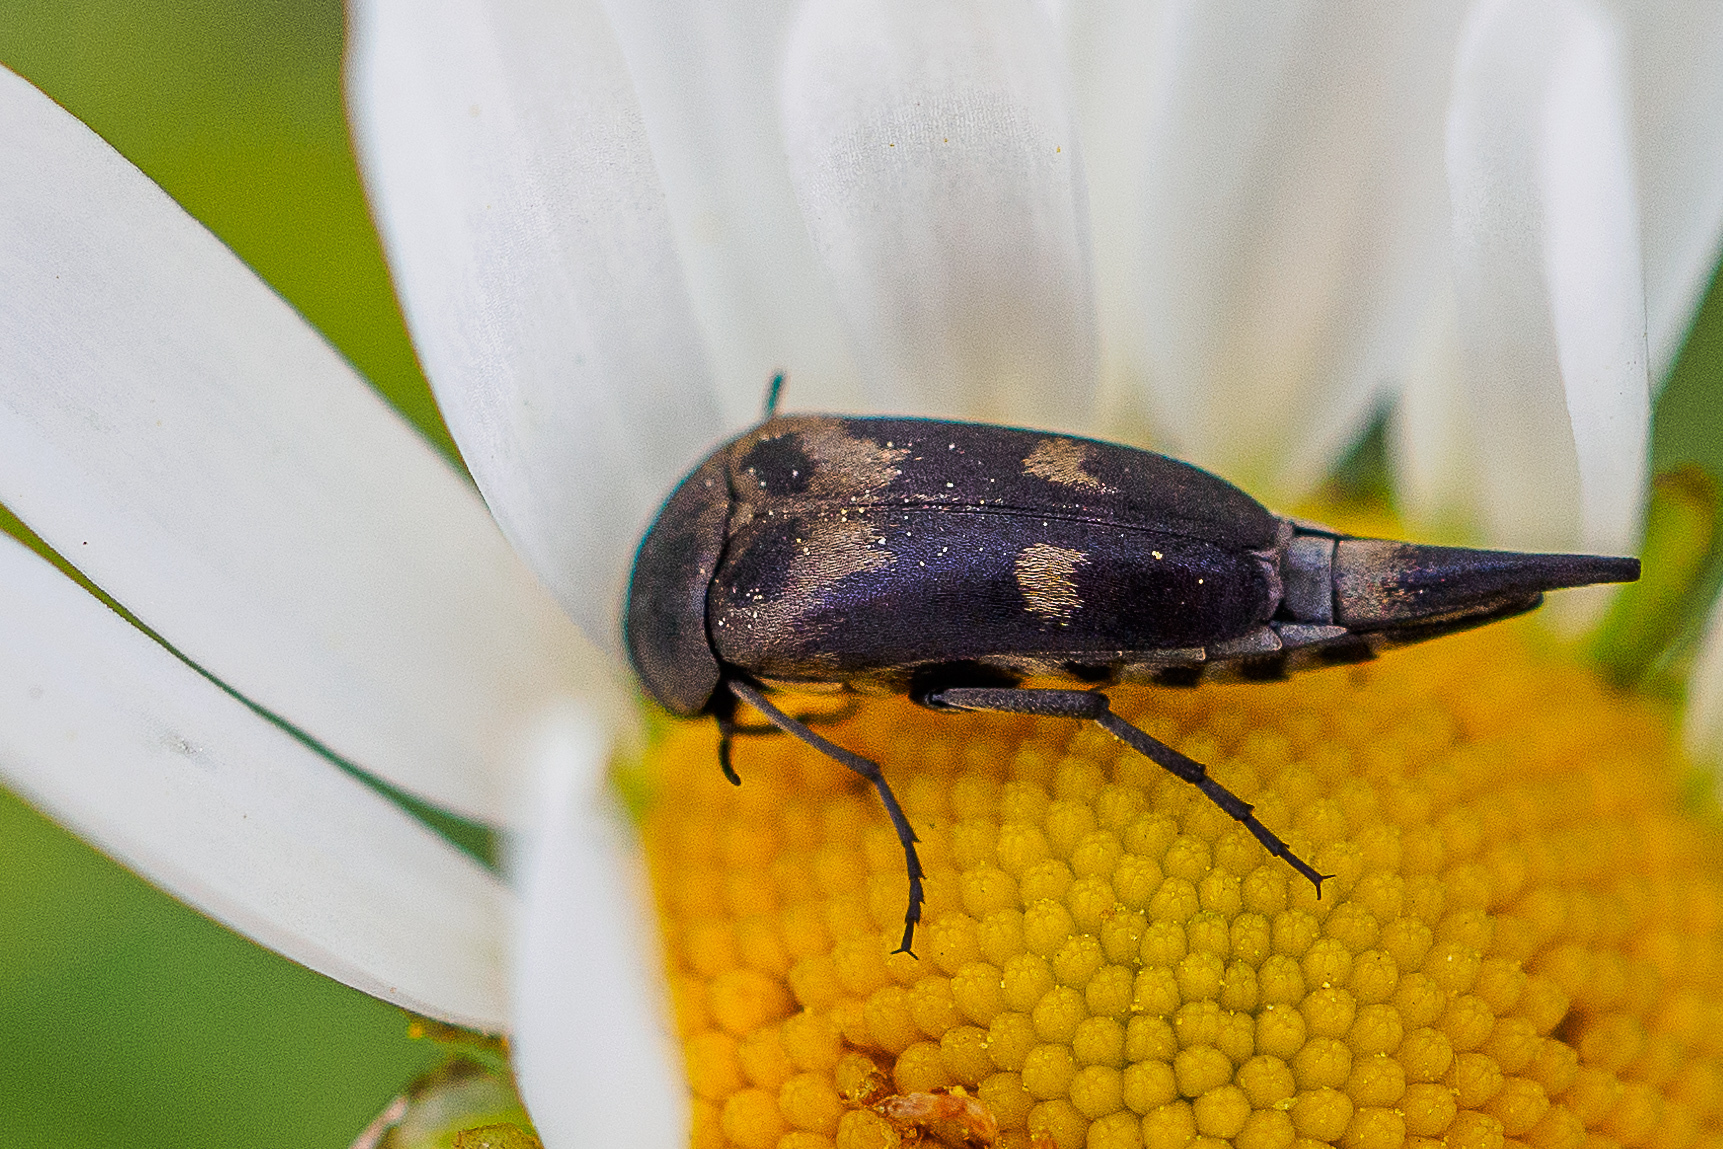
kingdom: Animalia
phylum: Arthropoda
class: Insecta
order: Coleoptera
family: Mordellidae
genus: Variimorda
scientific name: Variimorda villosa
